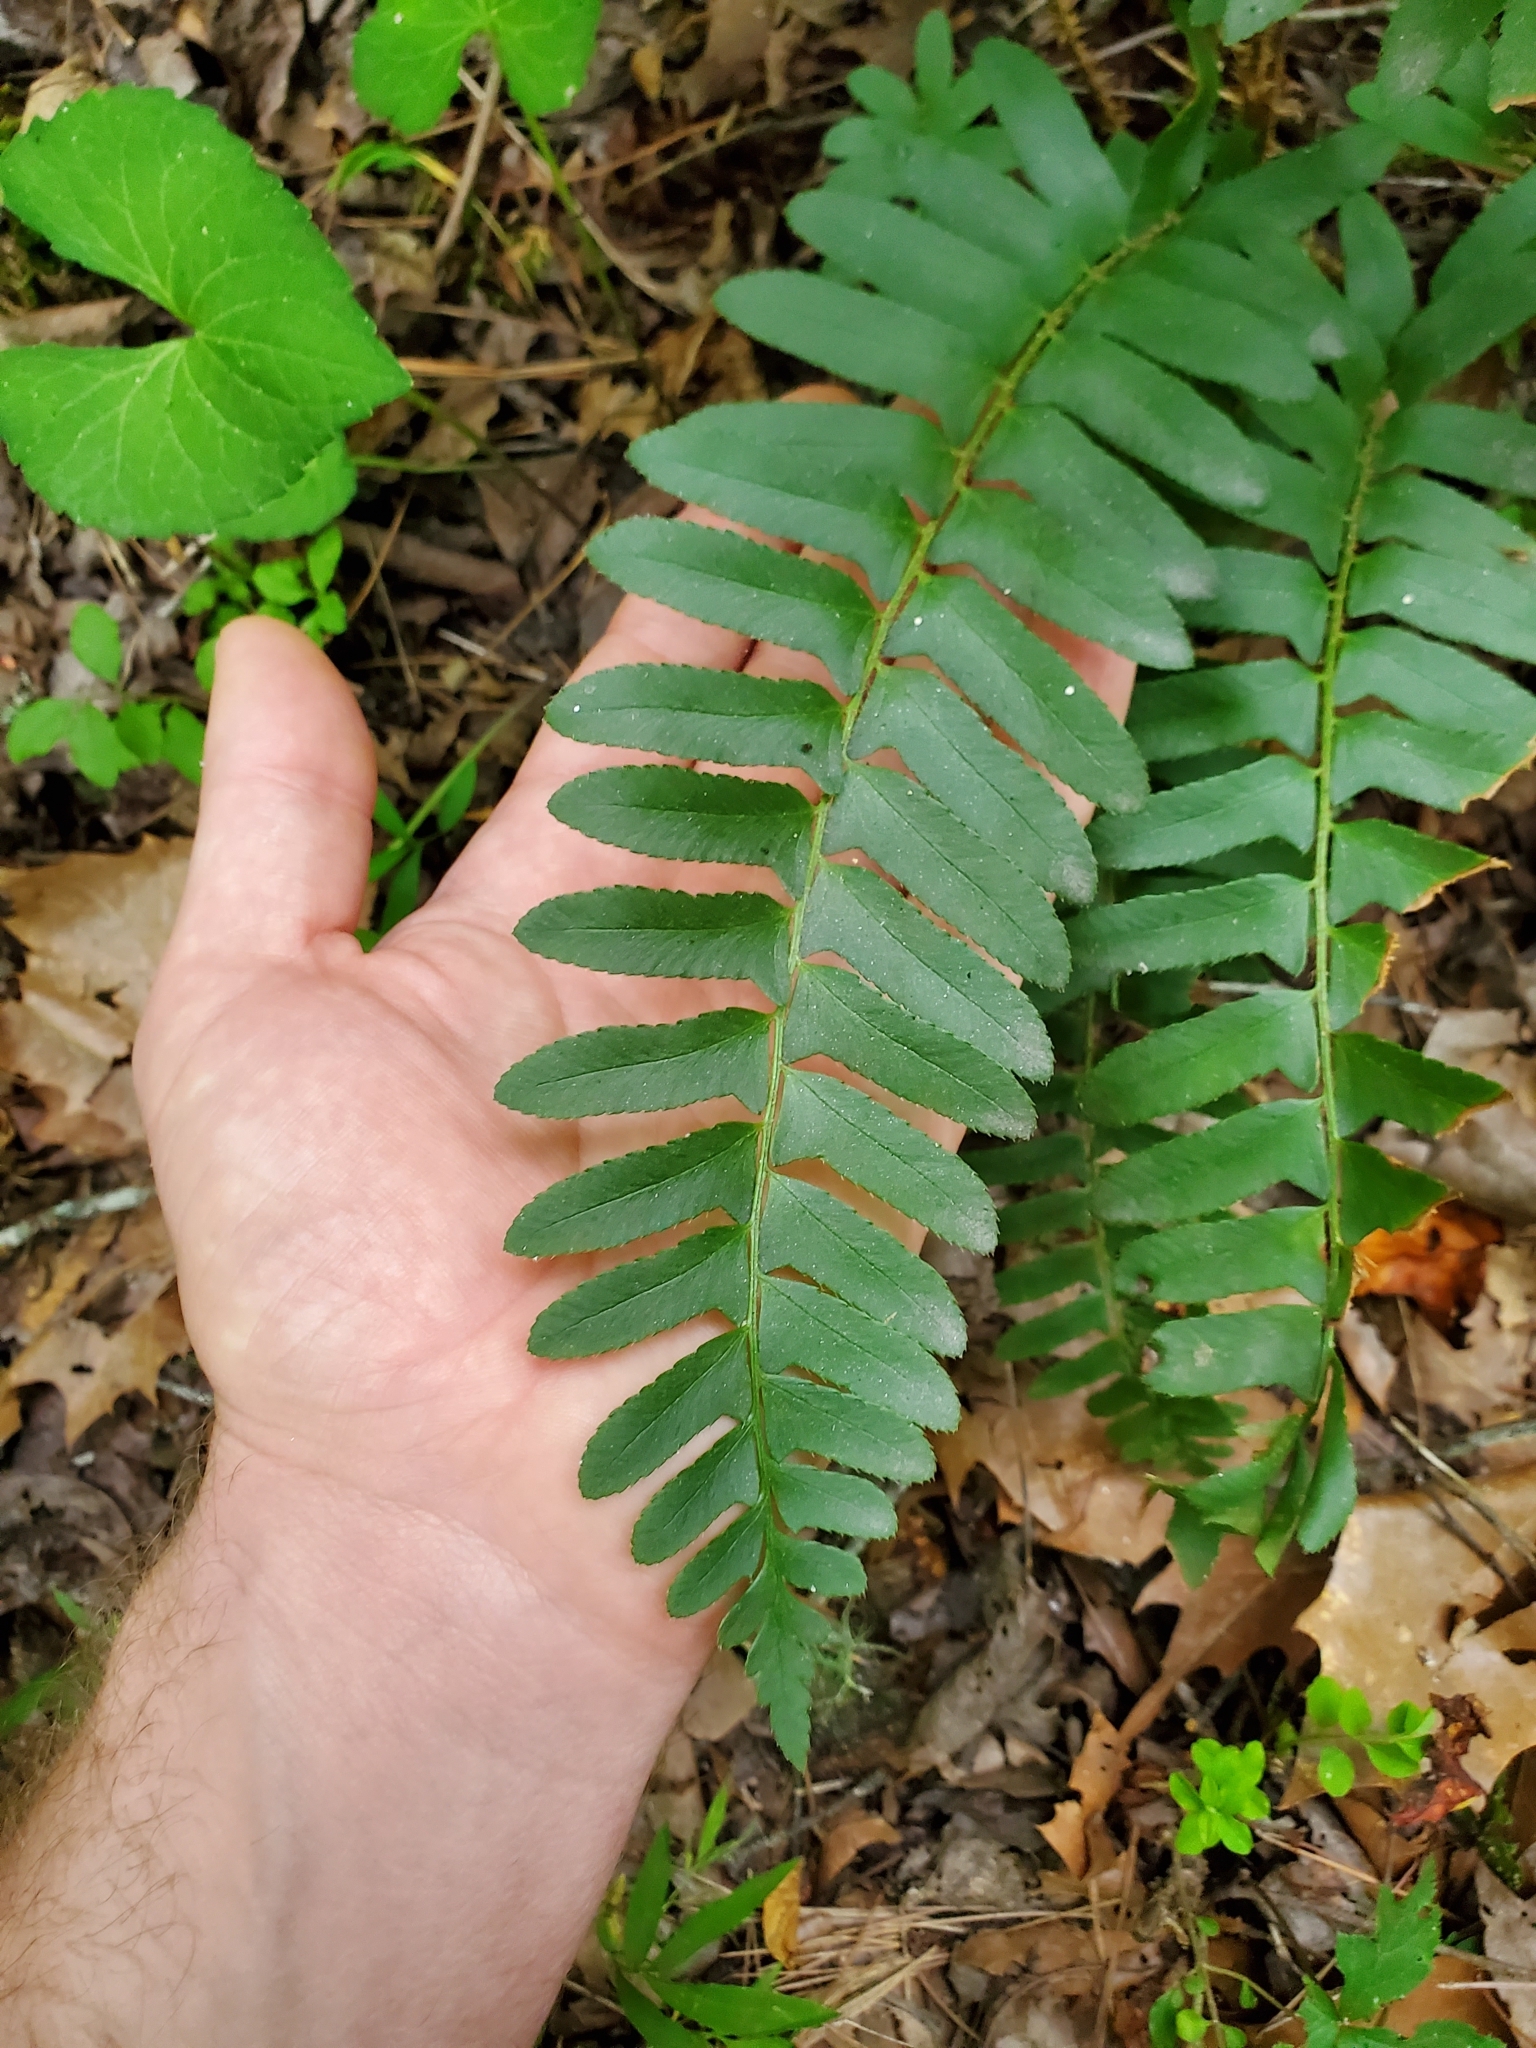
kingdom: Plantae
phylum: Tracheophyta
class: Polypodiopsida
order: Polypodiales
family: Dryopteridaceae
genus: Polystichum
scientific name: Polystichum acrostichoides
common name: Christmas fern
